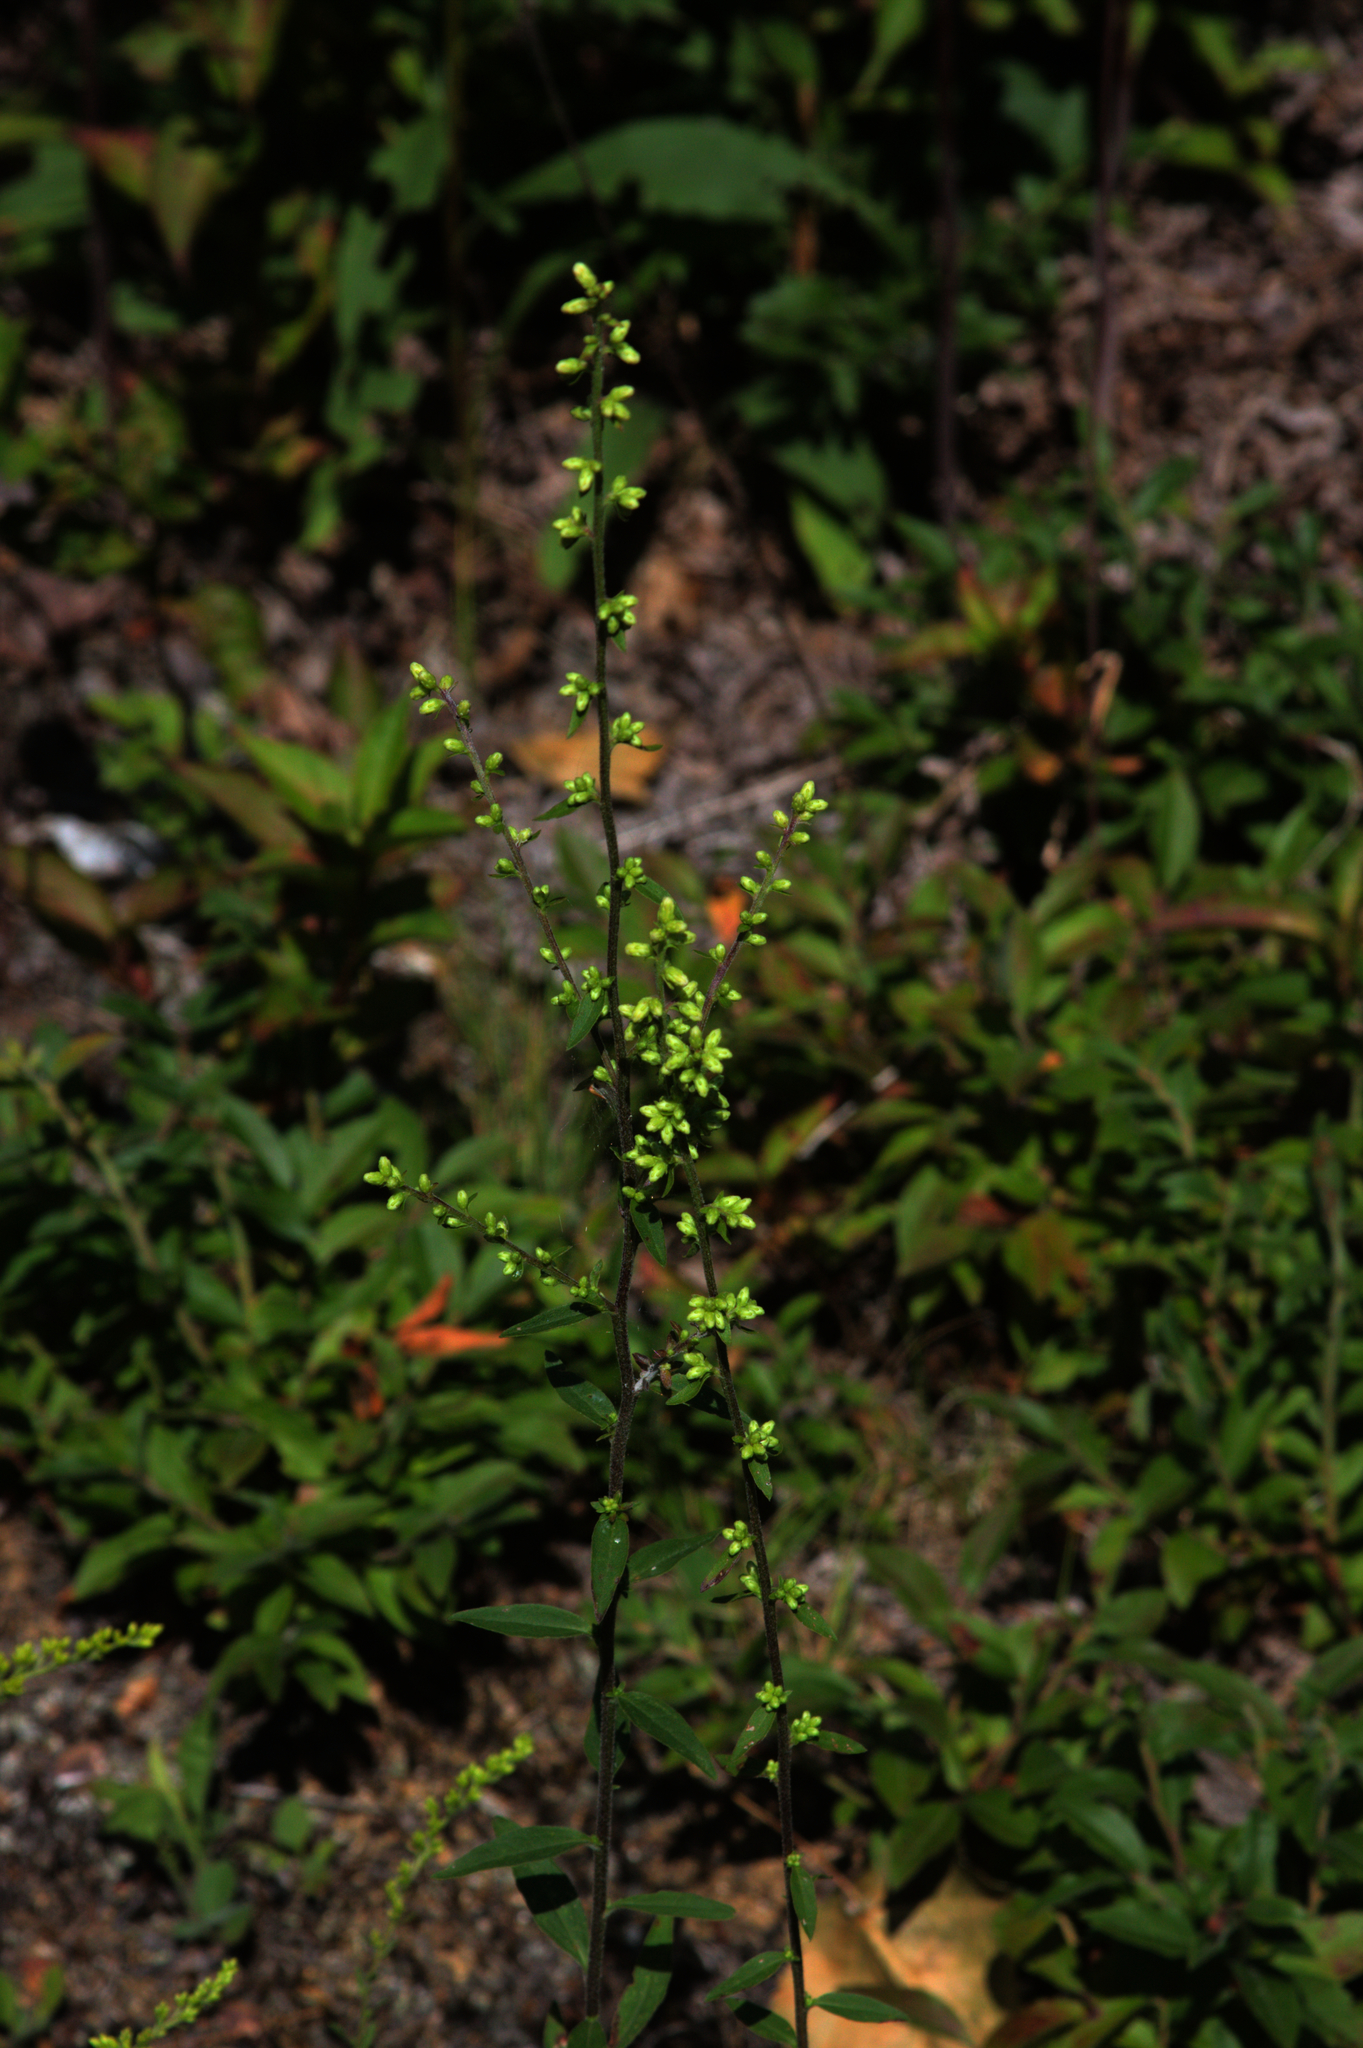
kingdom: Plantae
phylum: Tracheophyta
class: Magnoliopsida
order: Asterales
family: Asteraceae
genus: Solidago
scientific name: Solidago bicolor
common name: Silverrod
